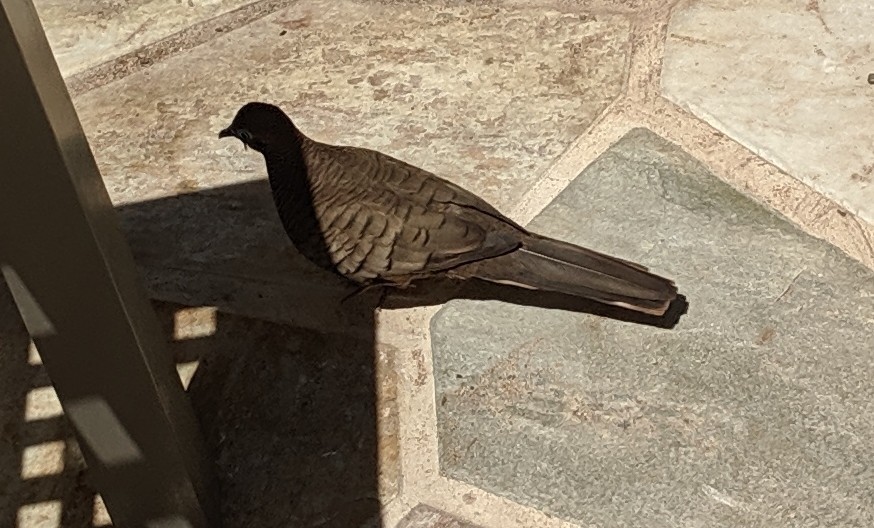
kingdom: Animalia
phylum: Chordata
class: Aves
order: Columbiformes
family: Columbidae
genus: Geopelia
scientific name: Geopelia striata
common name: Zebra dove
